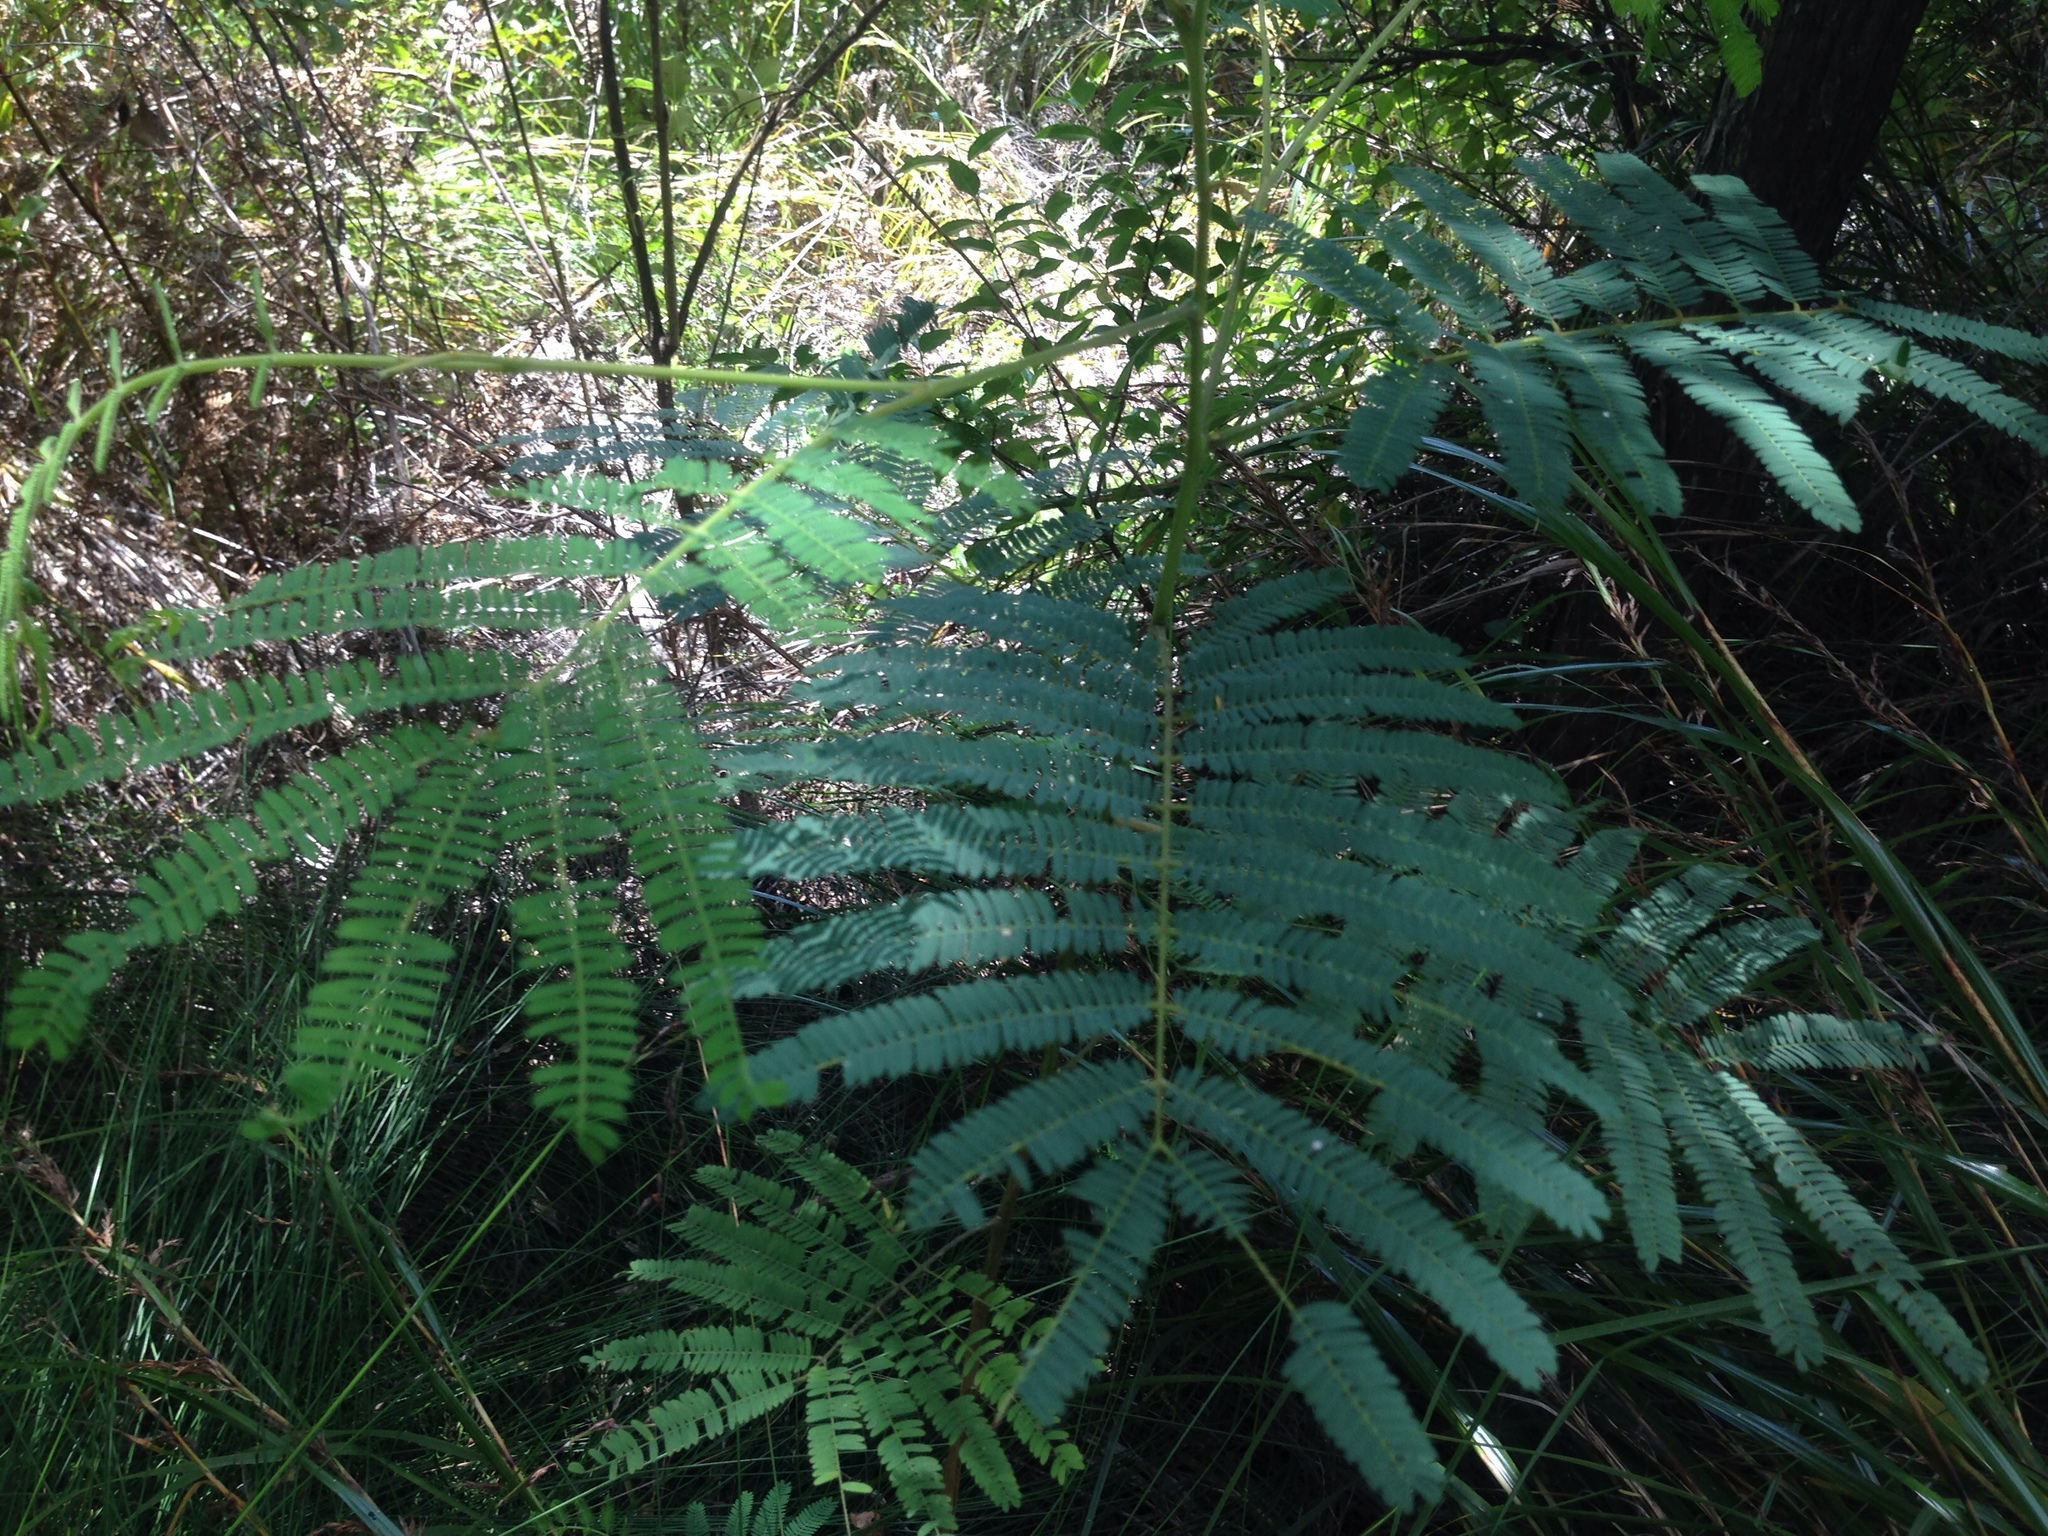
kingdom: Plantae
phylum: Tracheophyta
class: Magnoliopsida
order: Fabales
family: Fabaceae
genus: Paraserianthes
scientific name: Paraserianthes lophantha
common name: Plume albizia
